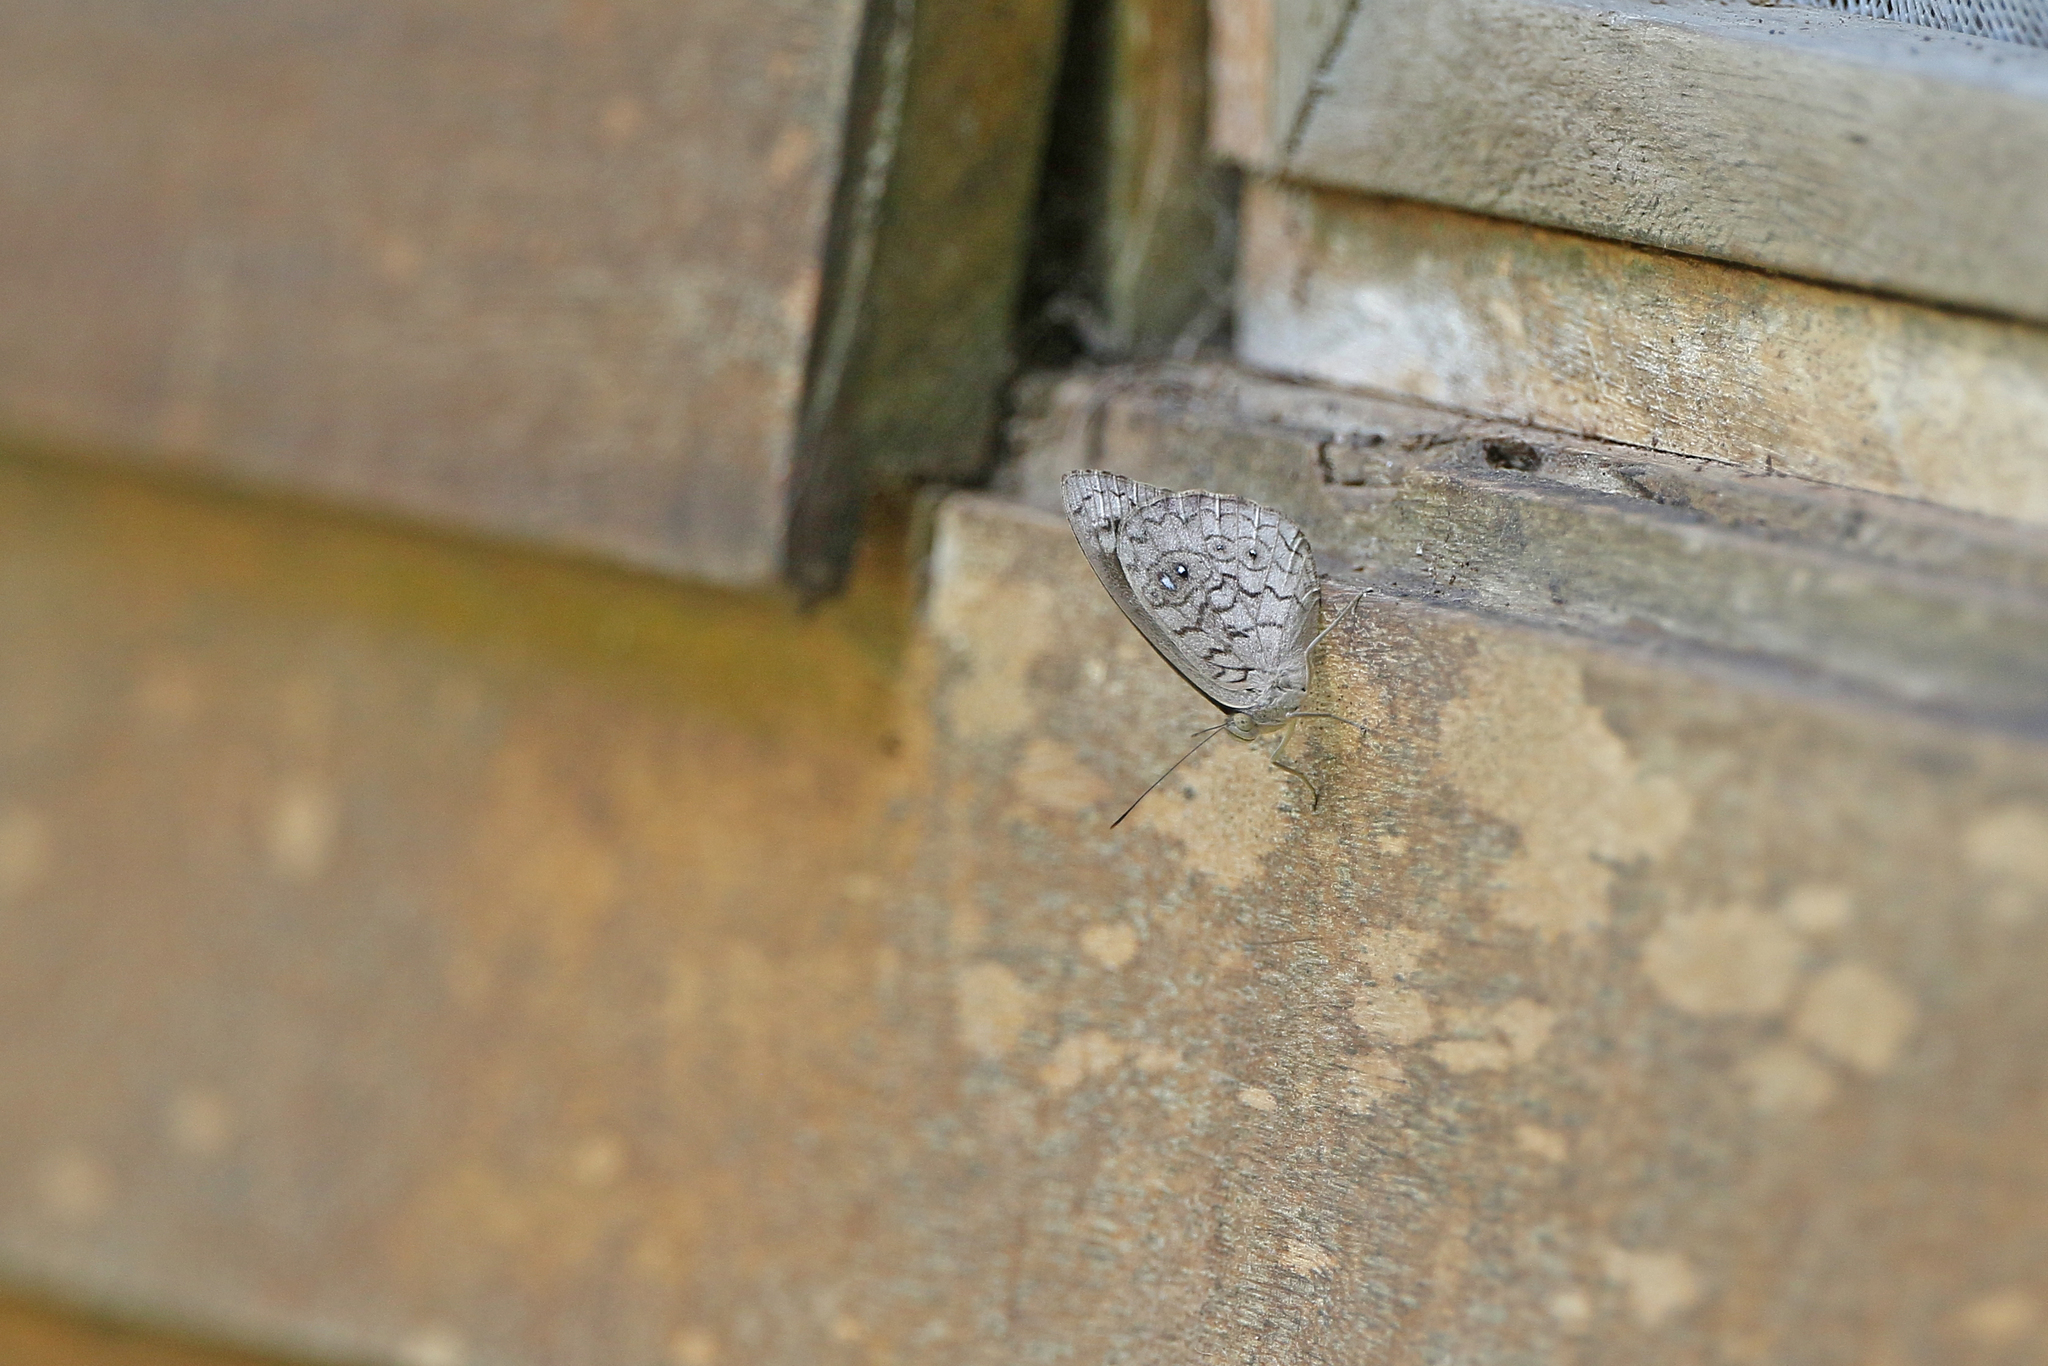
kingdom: Animalia
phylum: Arthropoda
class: Insecta
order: Lepidoptera
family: Nymphalidae
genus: Eunica
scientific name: Eunica clythia
